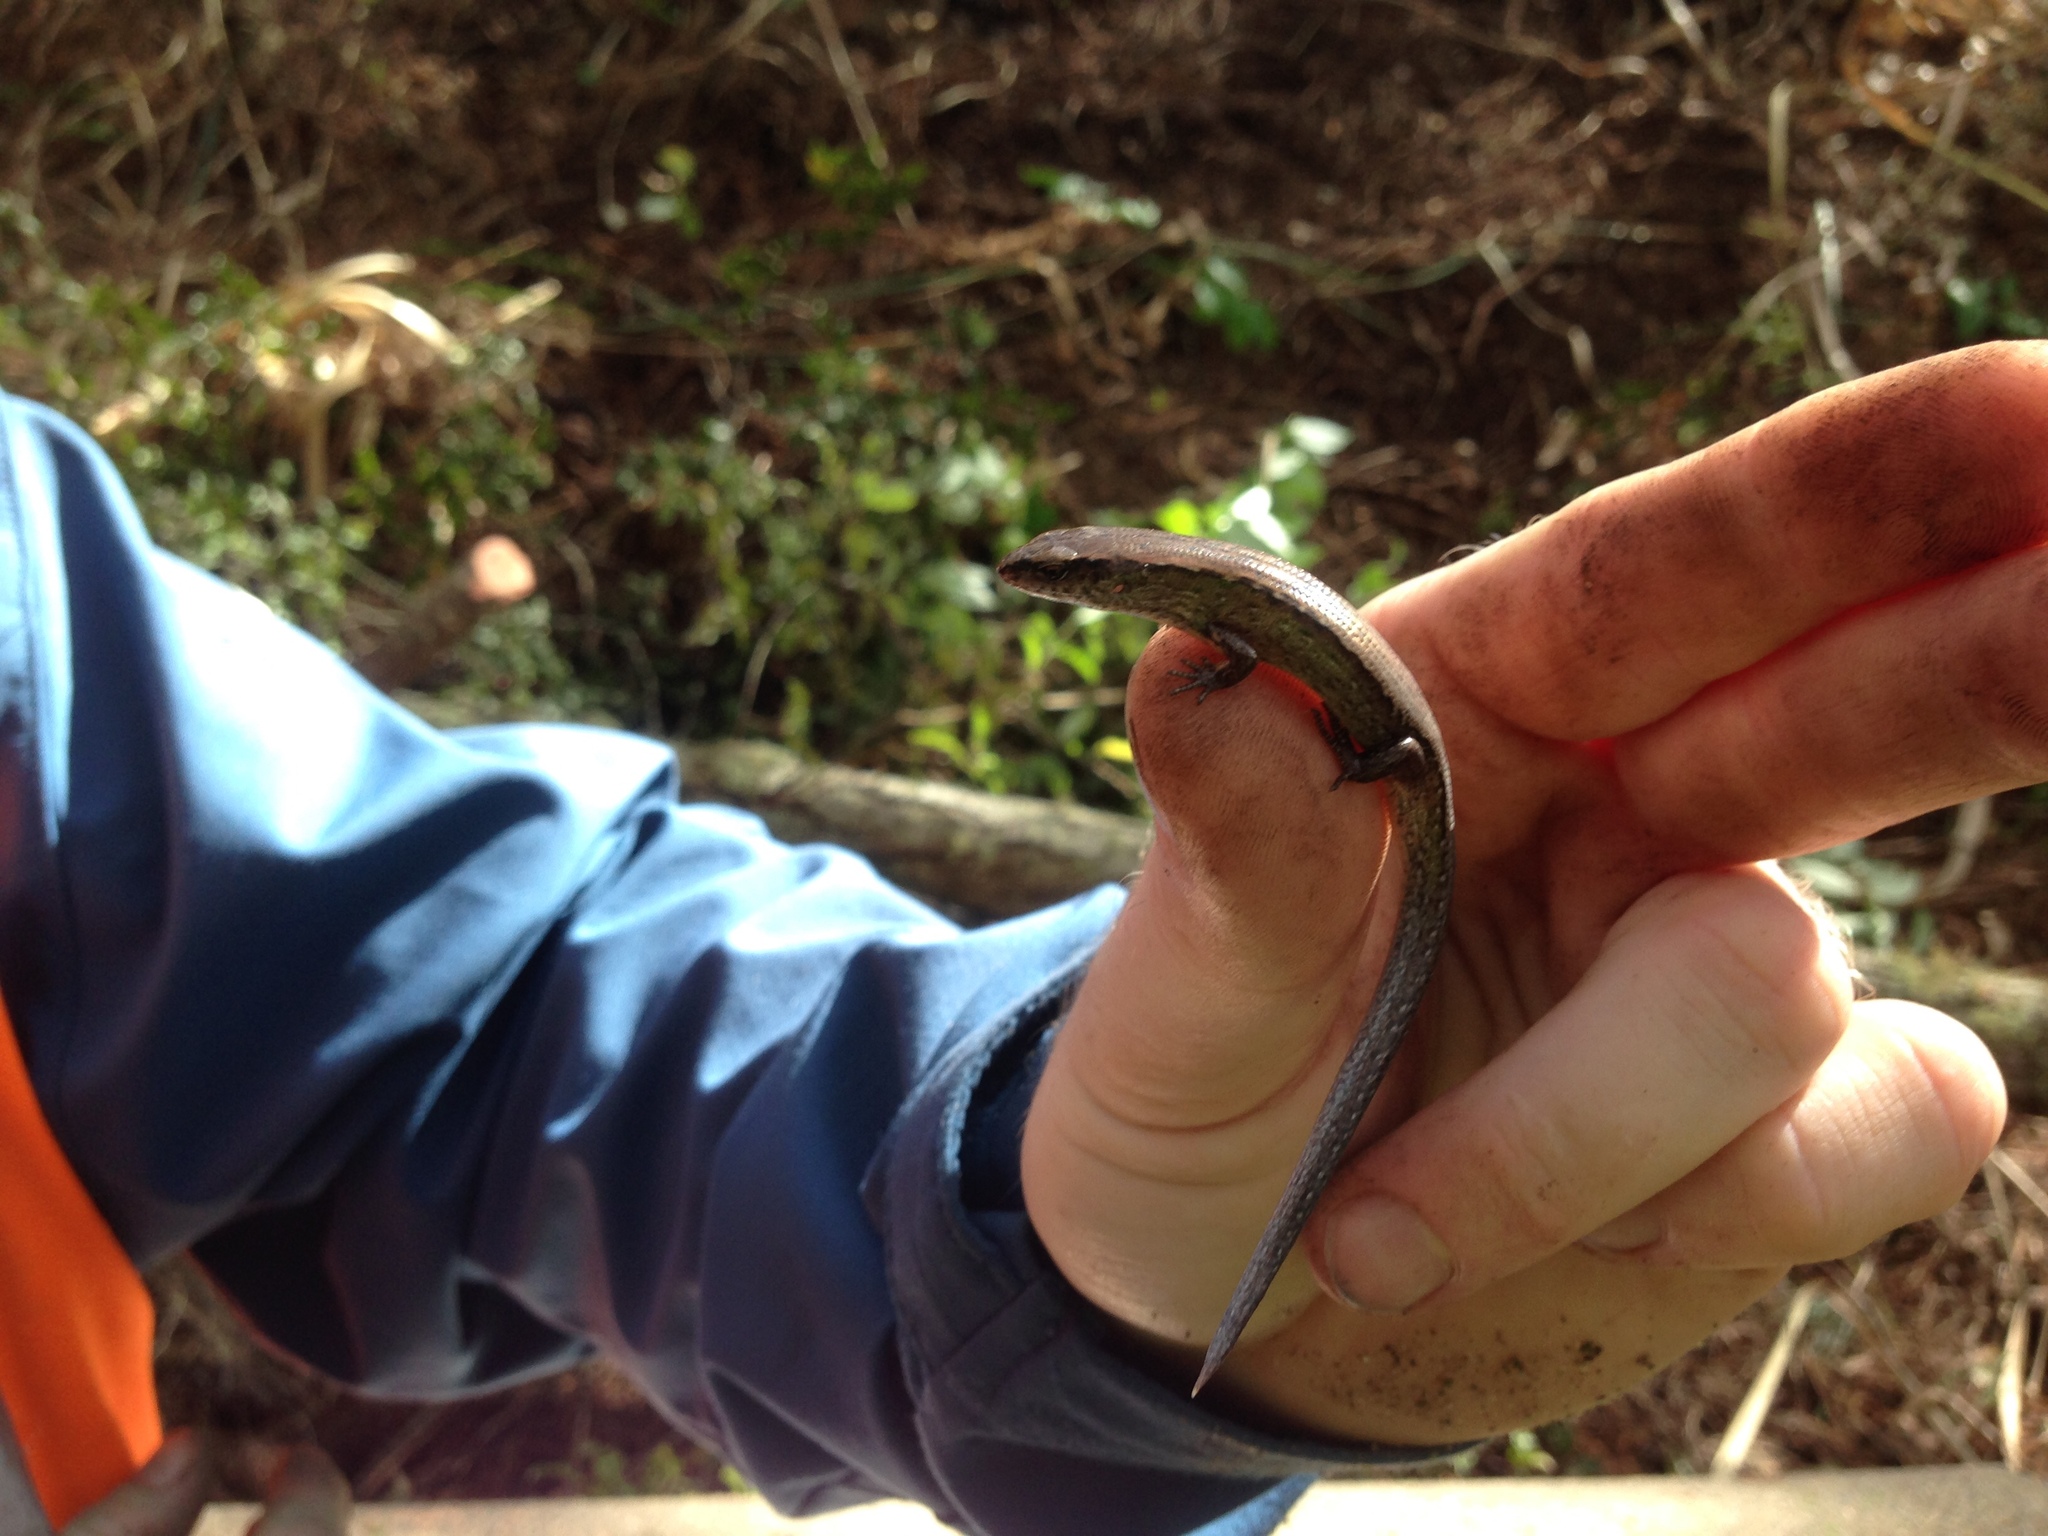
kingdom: Animalia
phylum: Chordata
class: Squamata
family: Scincidae
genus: Oligosoma
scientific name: Oligosoma aeneum
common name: Copper skink
